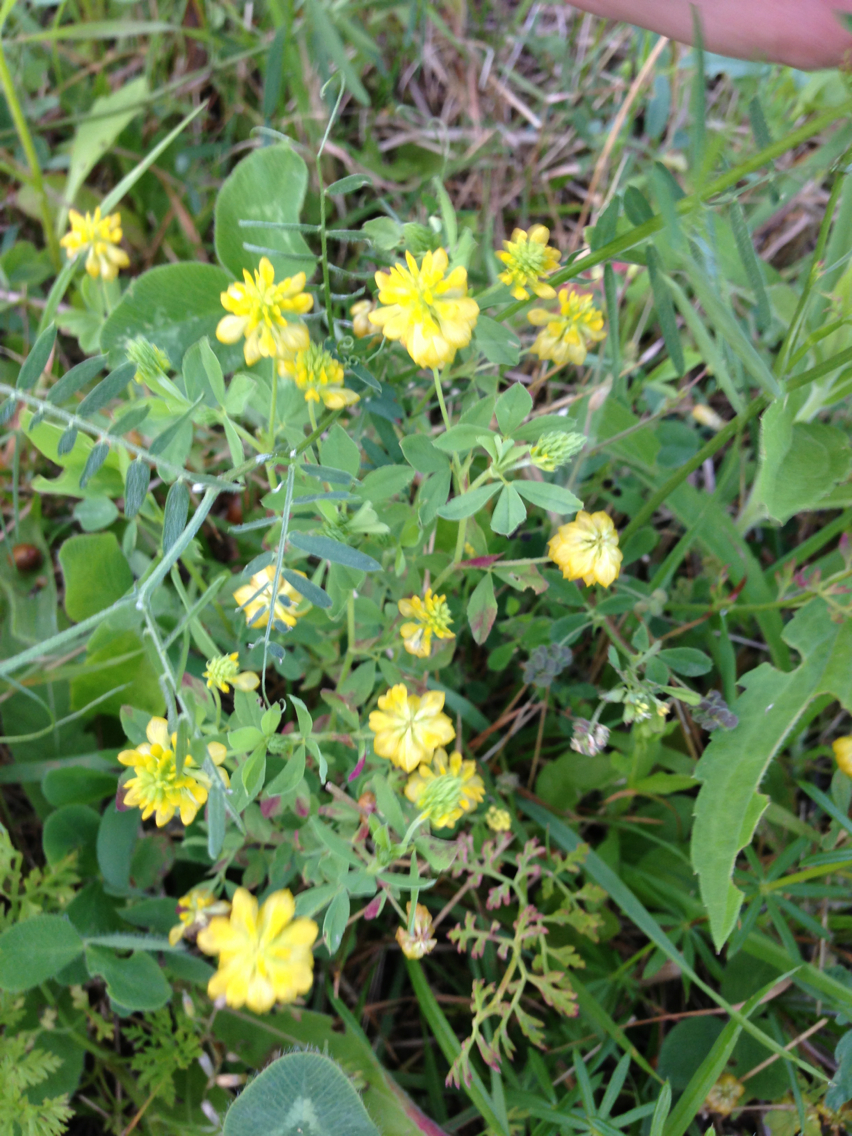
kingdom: Plantae
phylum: Tracheophyta
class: Magnoliopsida
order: Fabales
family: Fabaceae
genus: Trifolium
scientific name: Trifolium aureum
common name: Golden clover
